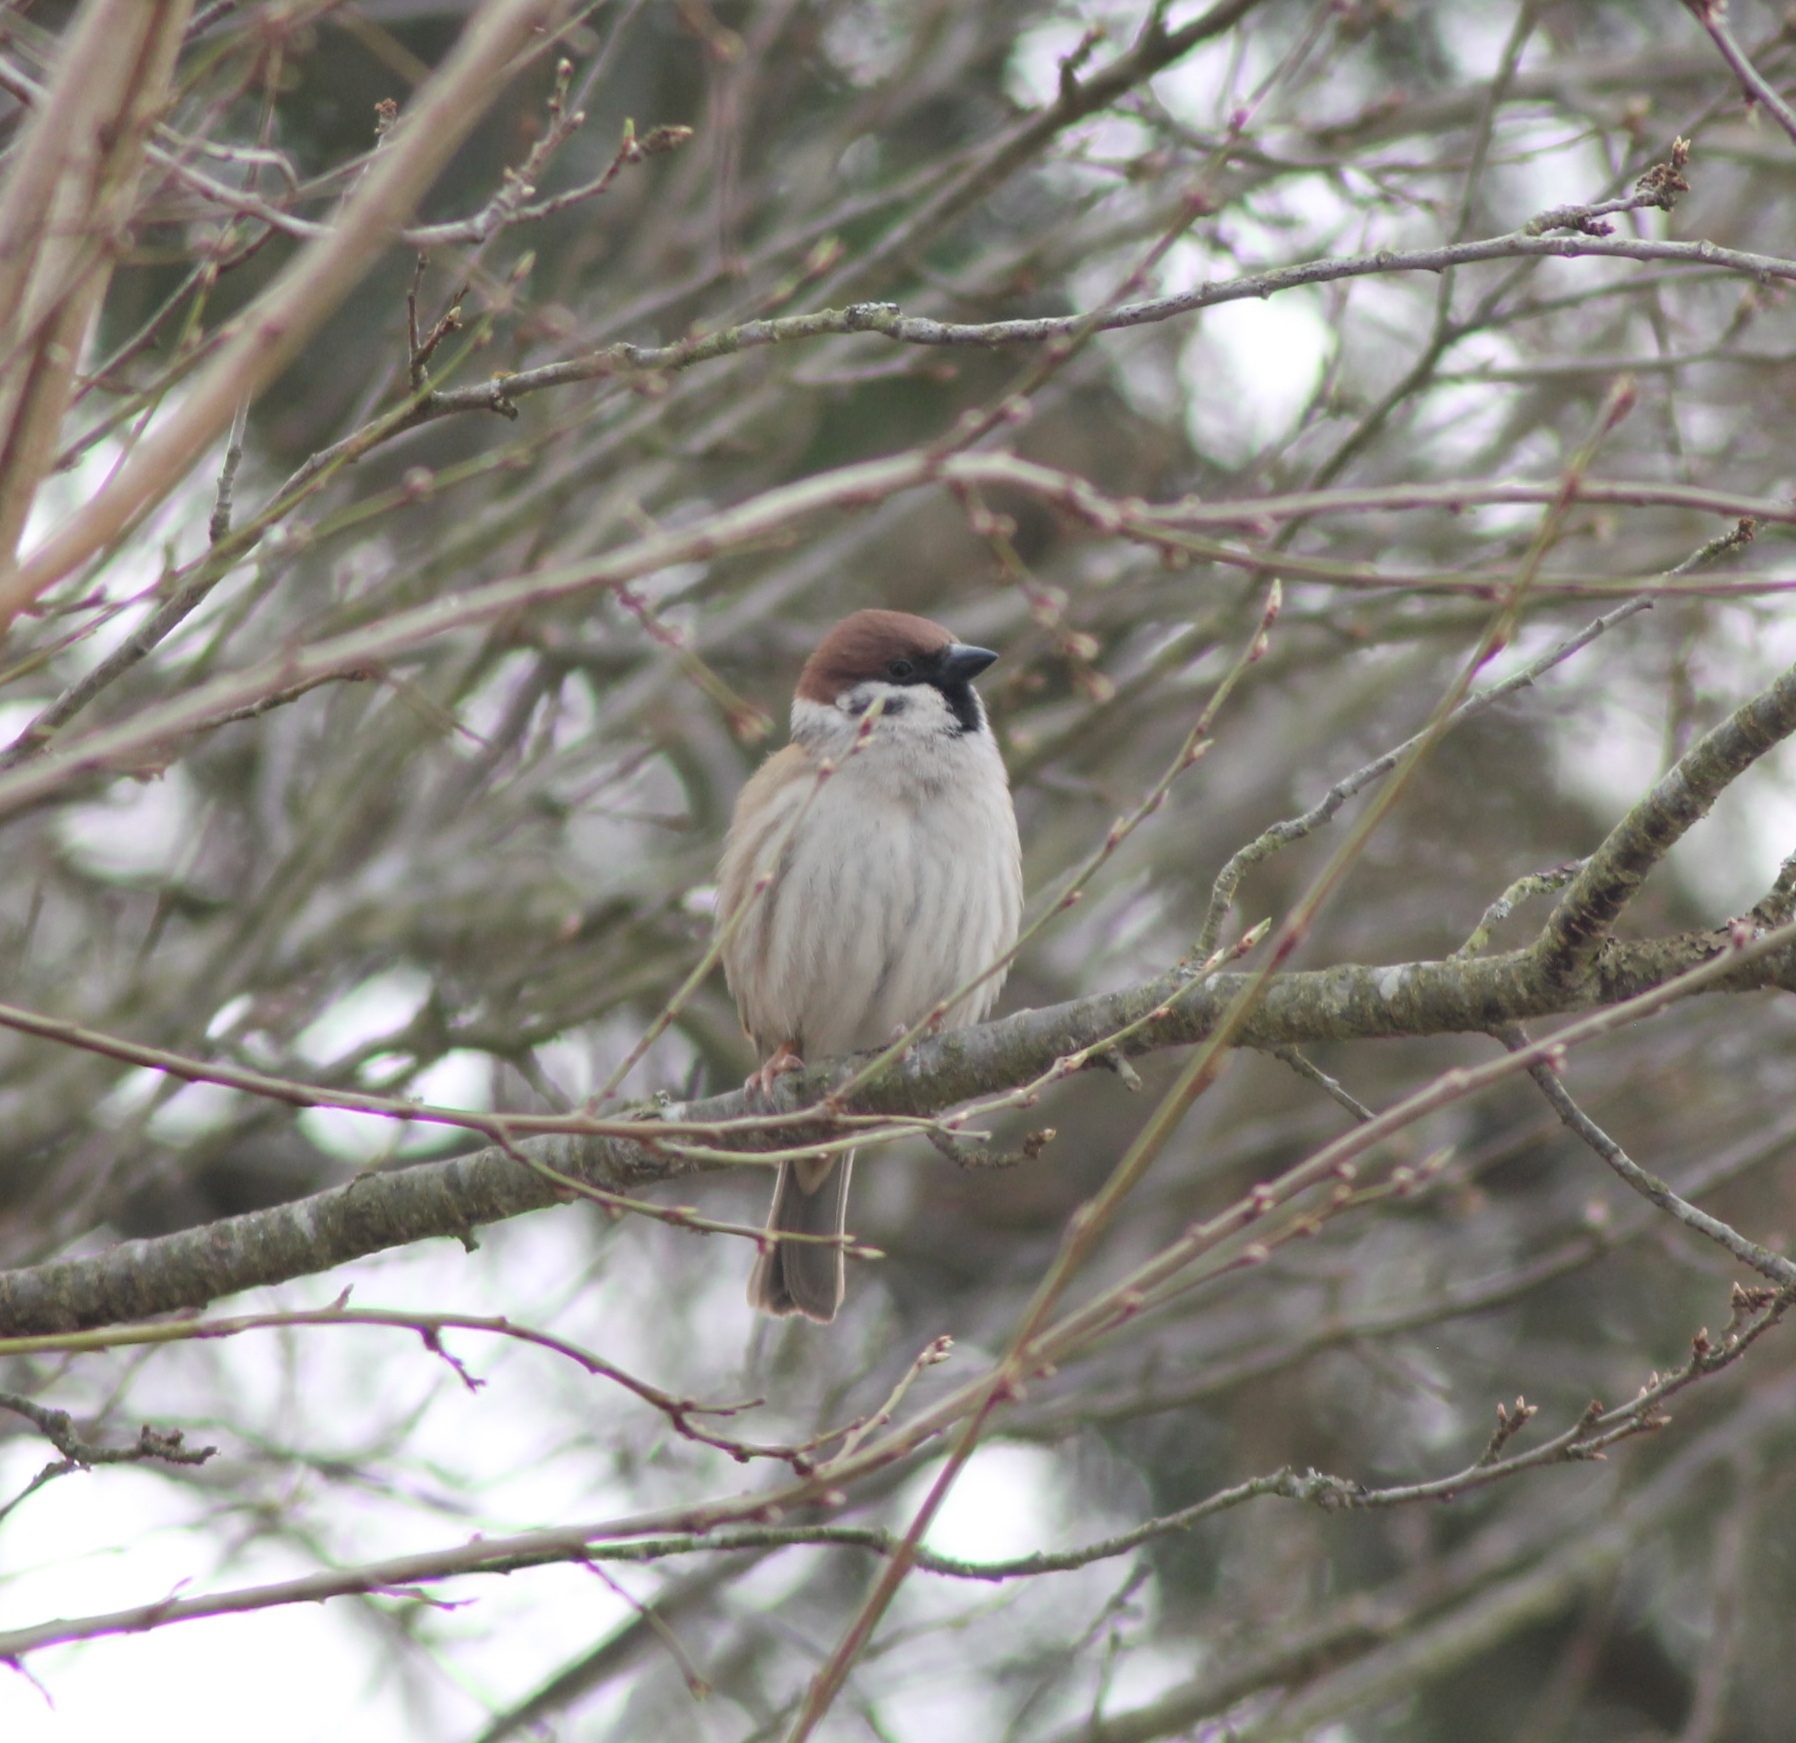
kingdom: Animalia
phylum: Chordata
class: Aves
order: Passeriformes
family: Passeridae
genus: Passer
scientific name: Passer montanus
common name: Eurasian tree sparrow
